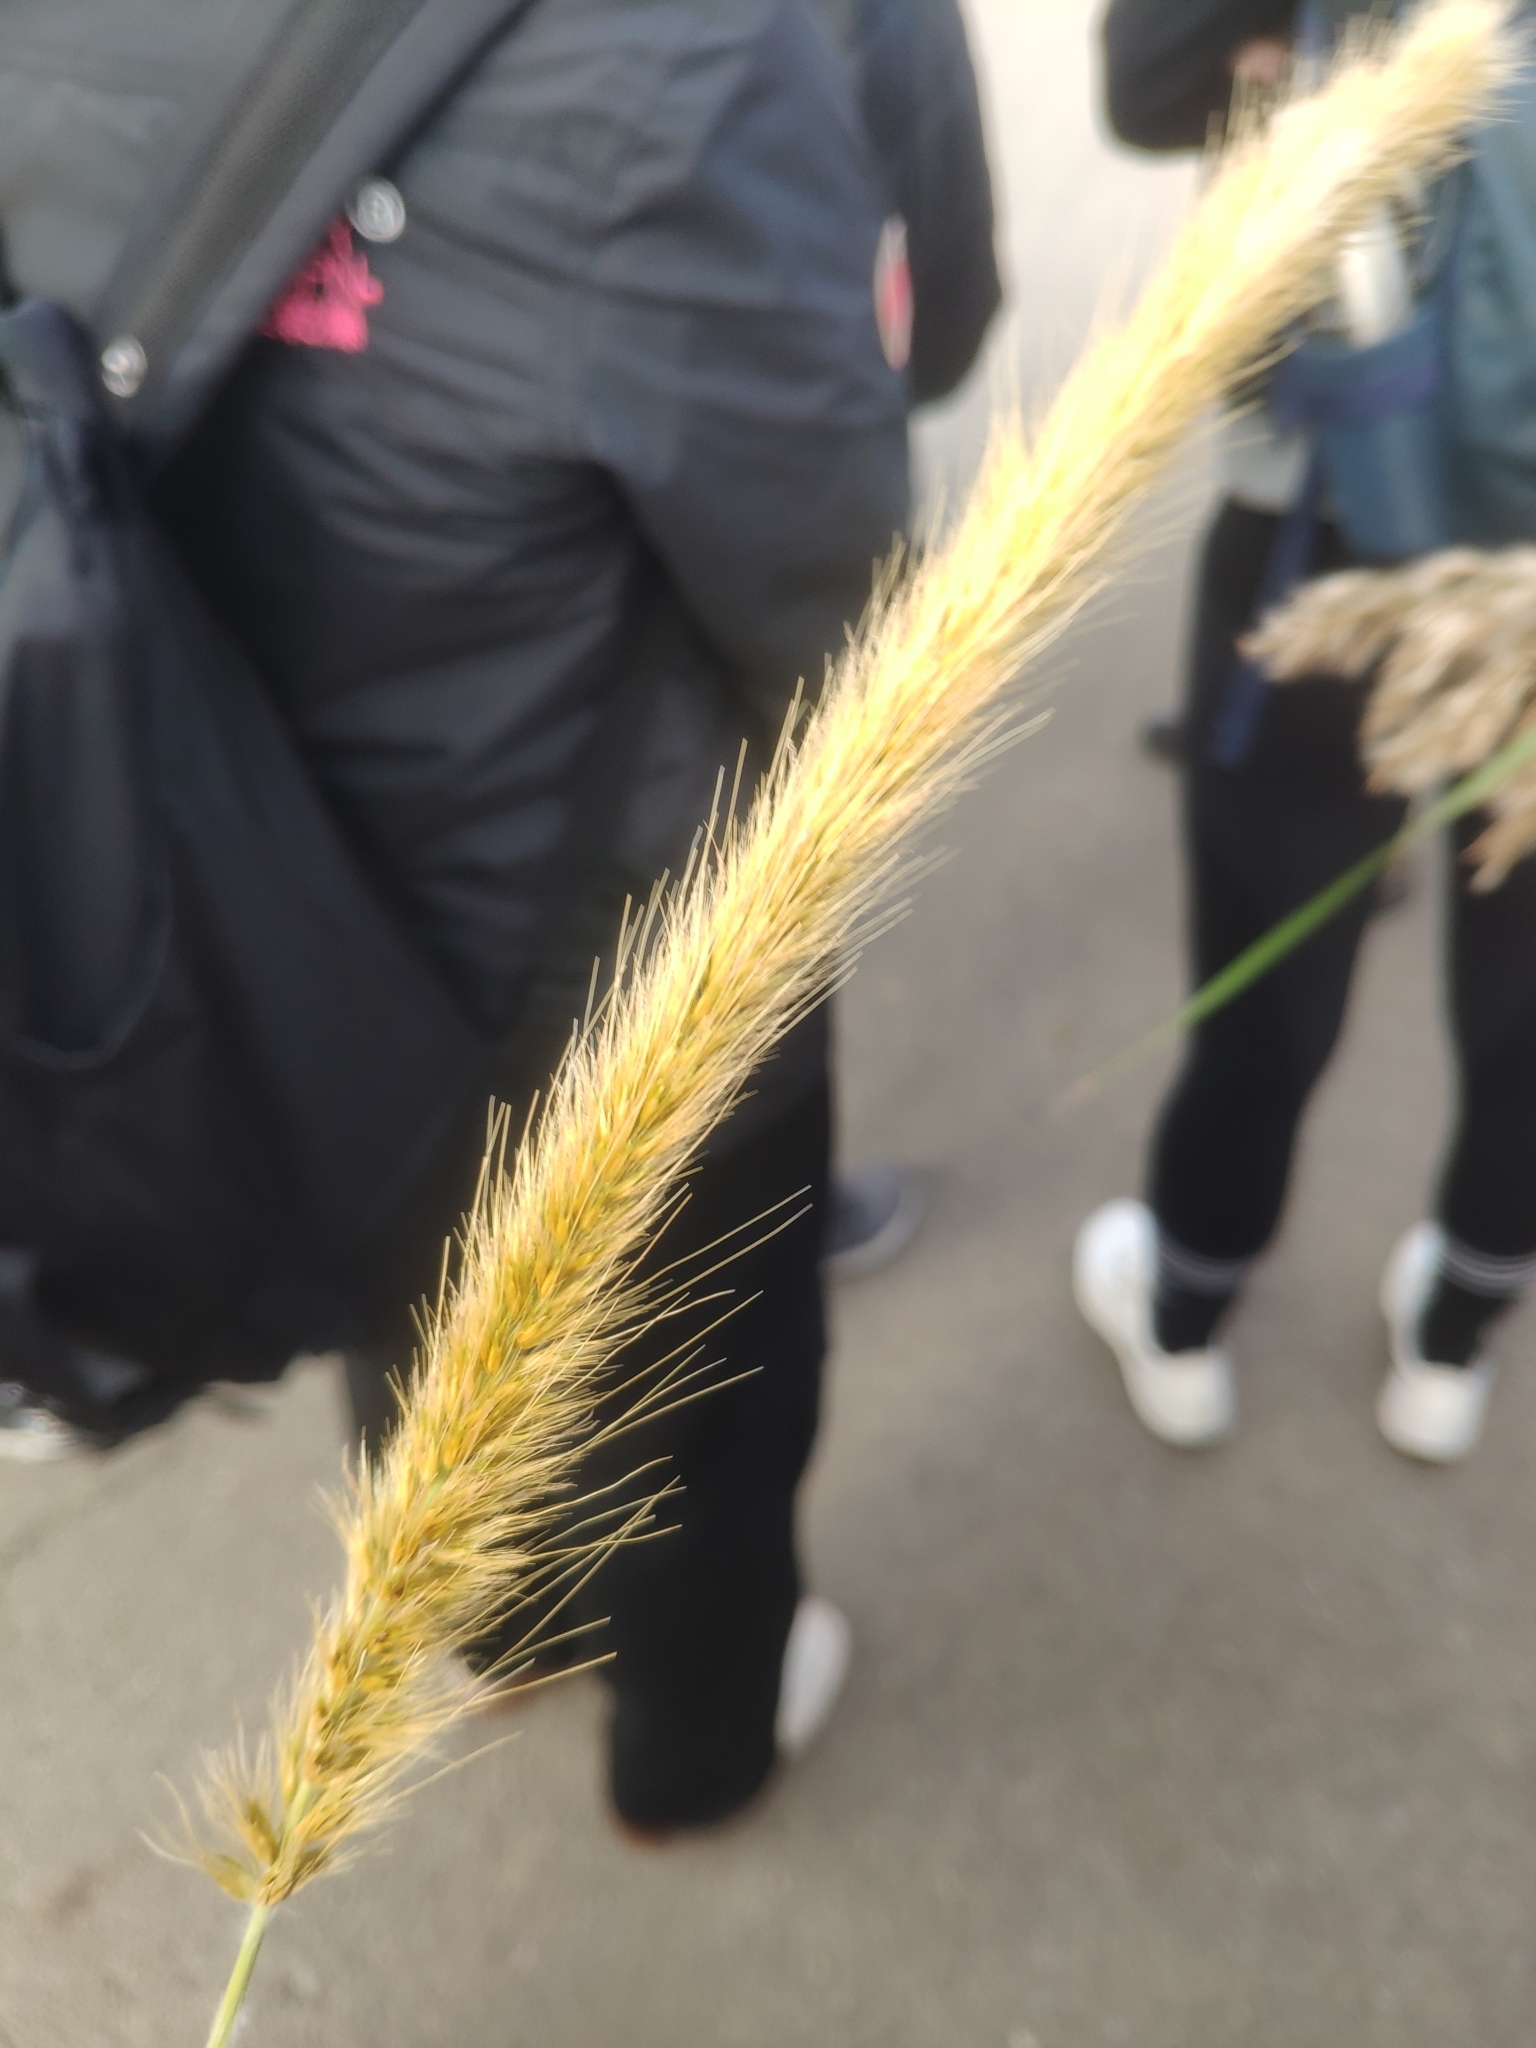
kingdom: Plantae
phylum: Tracheophyta
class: Liliopsida
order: Poales
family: Poaceae
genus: Cenchrus
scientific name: Cenchrus purpureus
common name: Elephant grass
